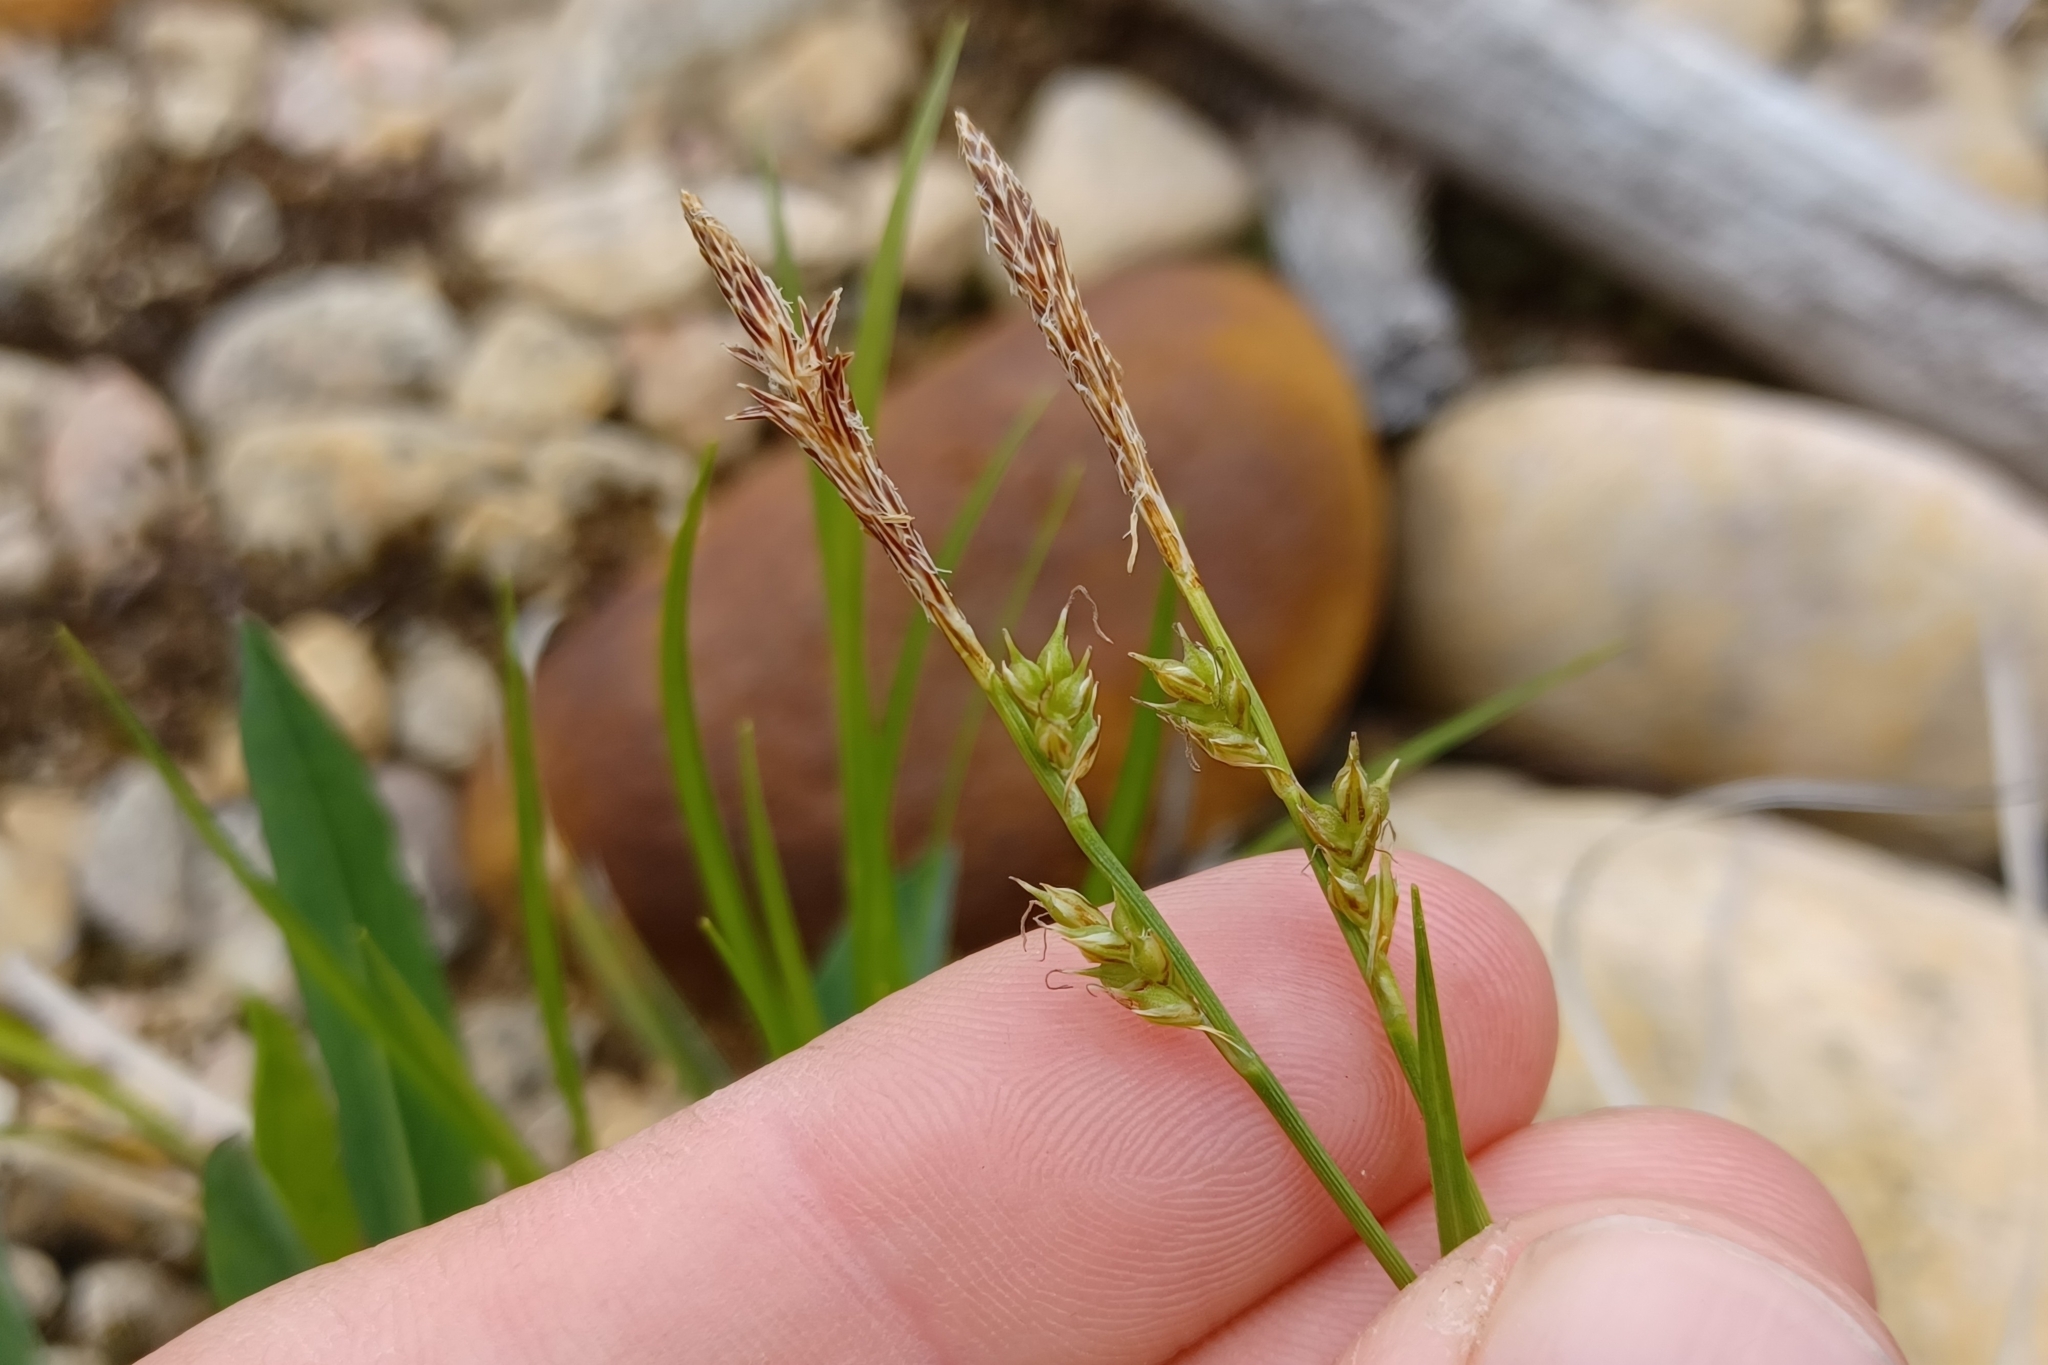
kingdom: Plantae
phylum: Tracheophyta
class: Liliopsida
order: Poales
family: Cyperaceae
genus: Carex
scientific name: Carex lucorum
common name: Blue ridge sedge
